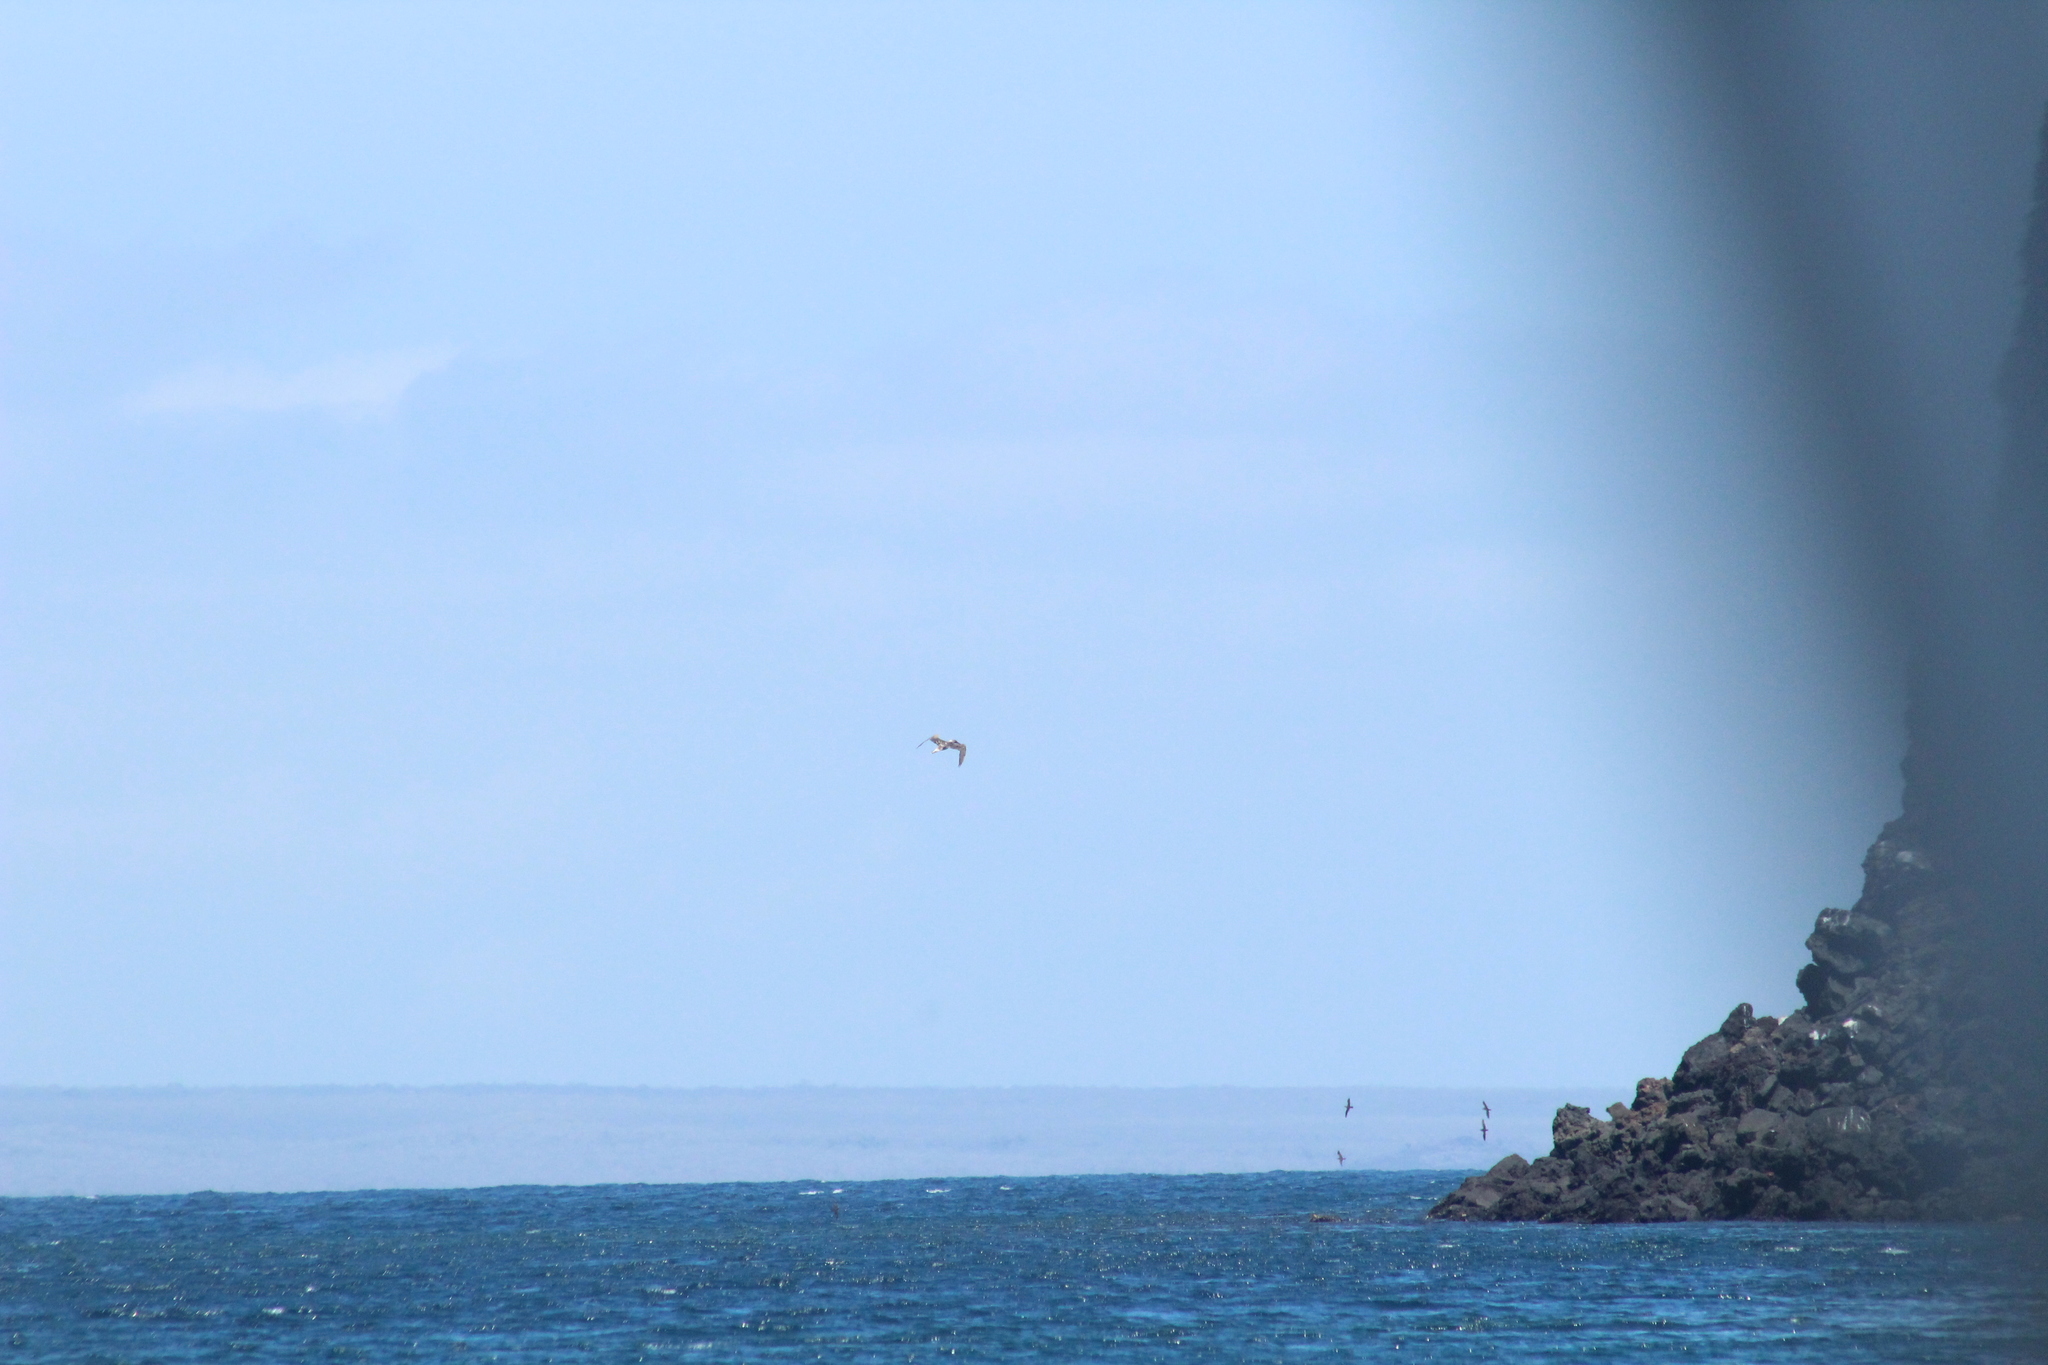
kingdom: Animalia
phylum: Chordata
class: Aves
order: Suliformes
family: Sulidae
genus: Sula
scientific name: Sula nebouxii
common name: Blue-footed booby
